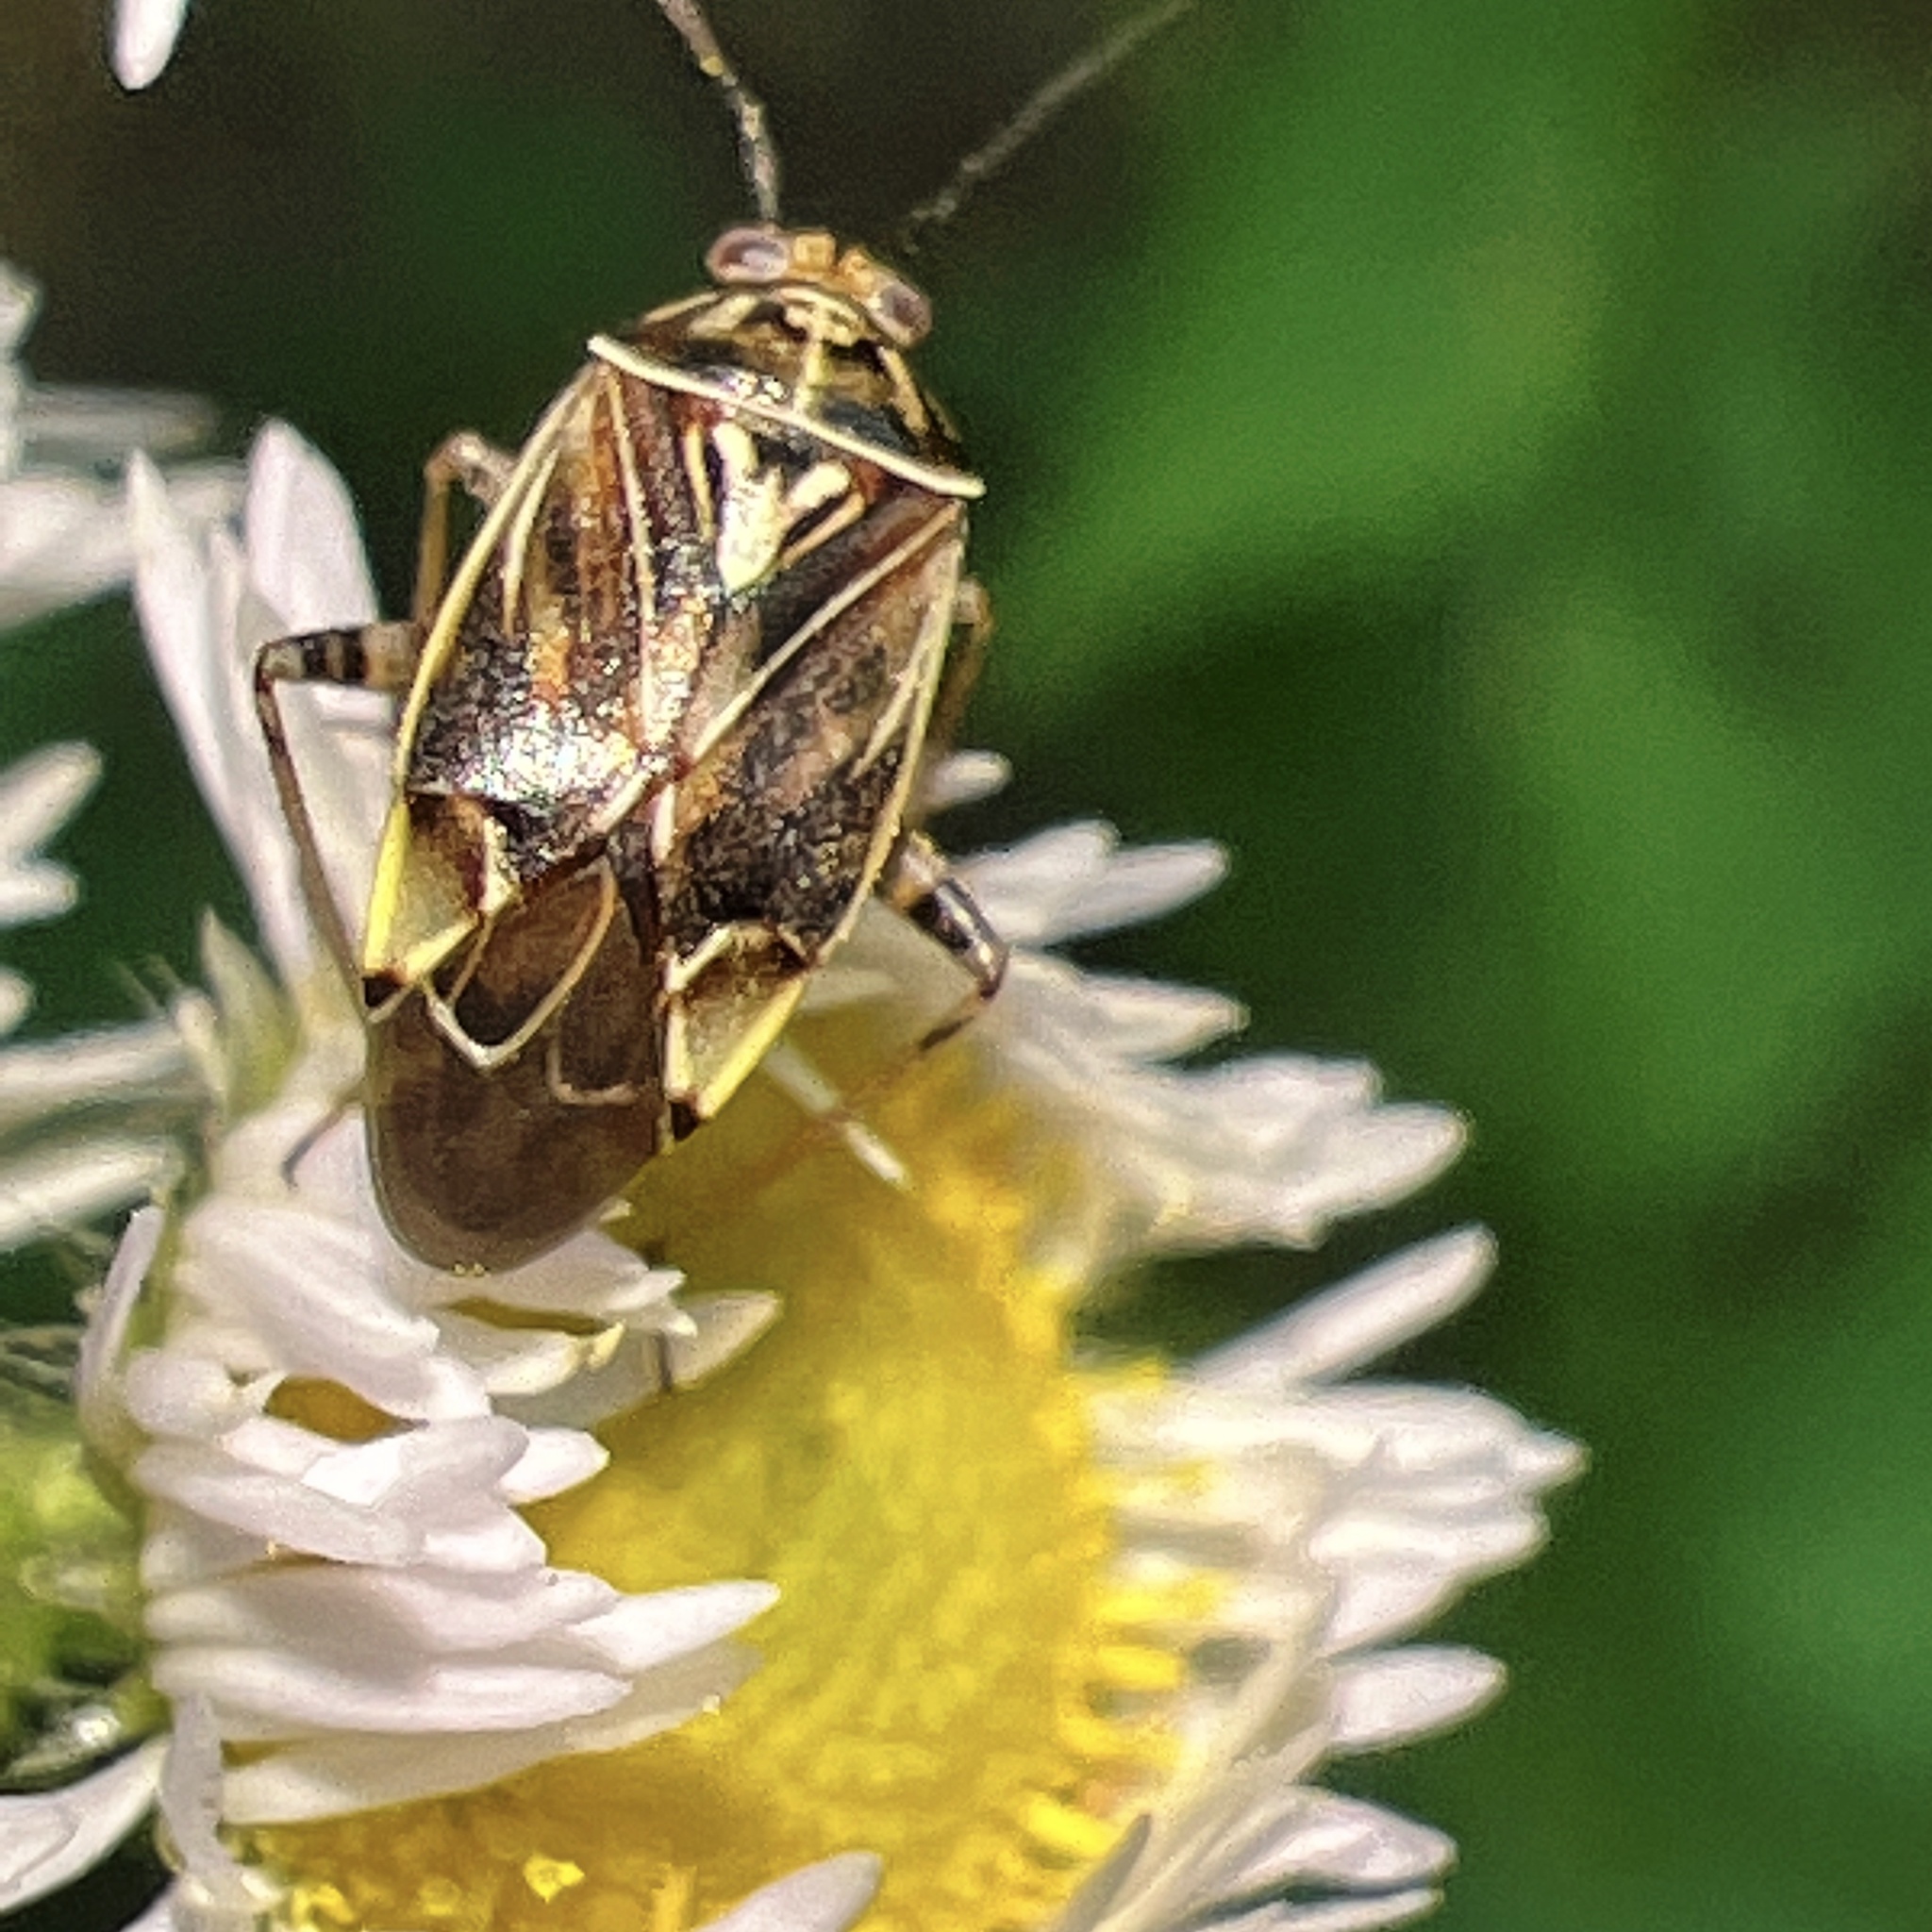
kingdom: Animalia
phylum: Arthropoda
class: Insecta
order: Hemiptera
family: Miridae
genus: Lygus
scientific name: Lygus lineolaris
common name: North american tarnished plant bug
